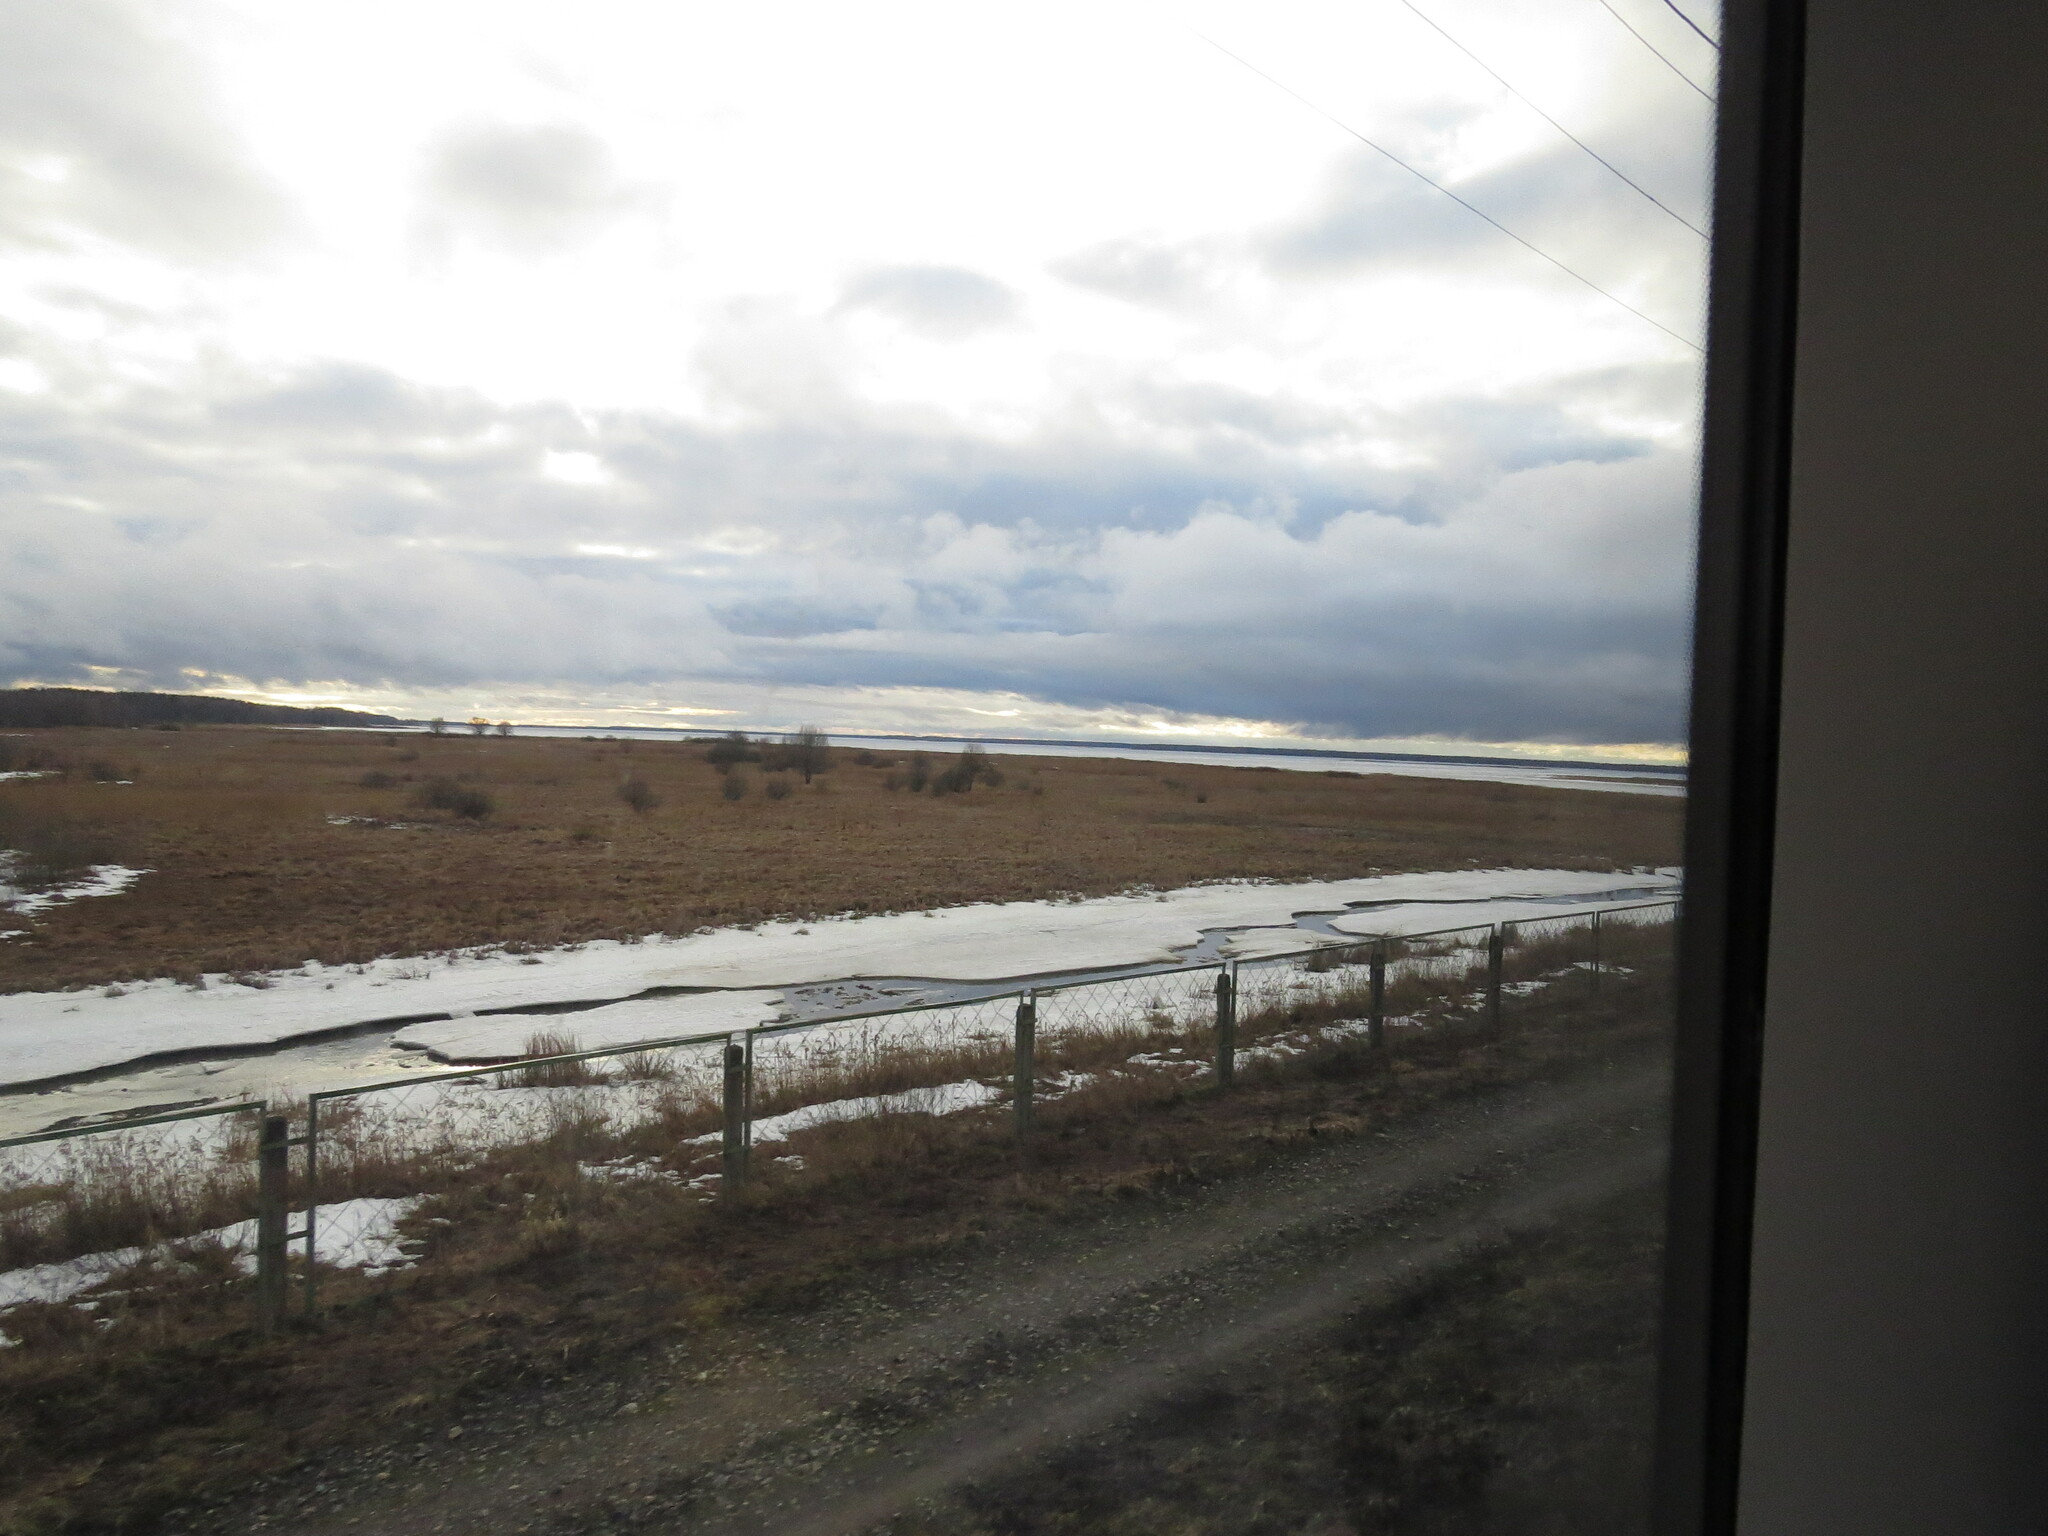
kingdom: Animalia
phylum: Chordata
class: Aves
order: Pelecaniformes
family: Ardeidae
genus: Ardea
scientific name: Ardea cinerea
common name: Grey heron
